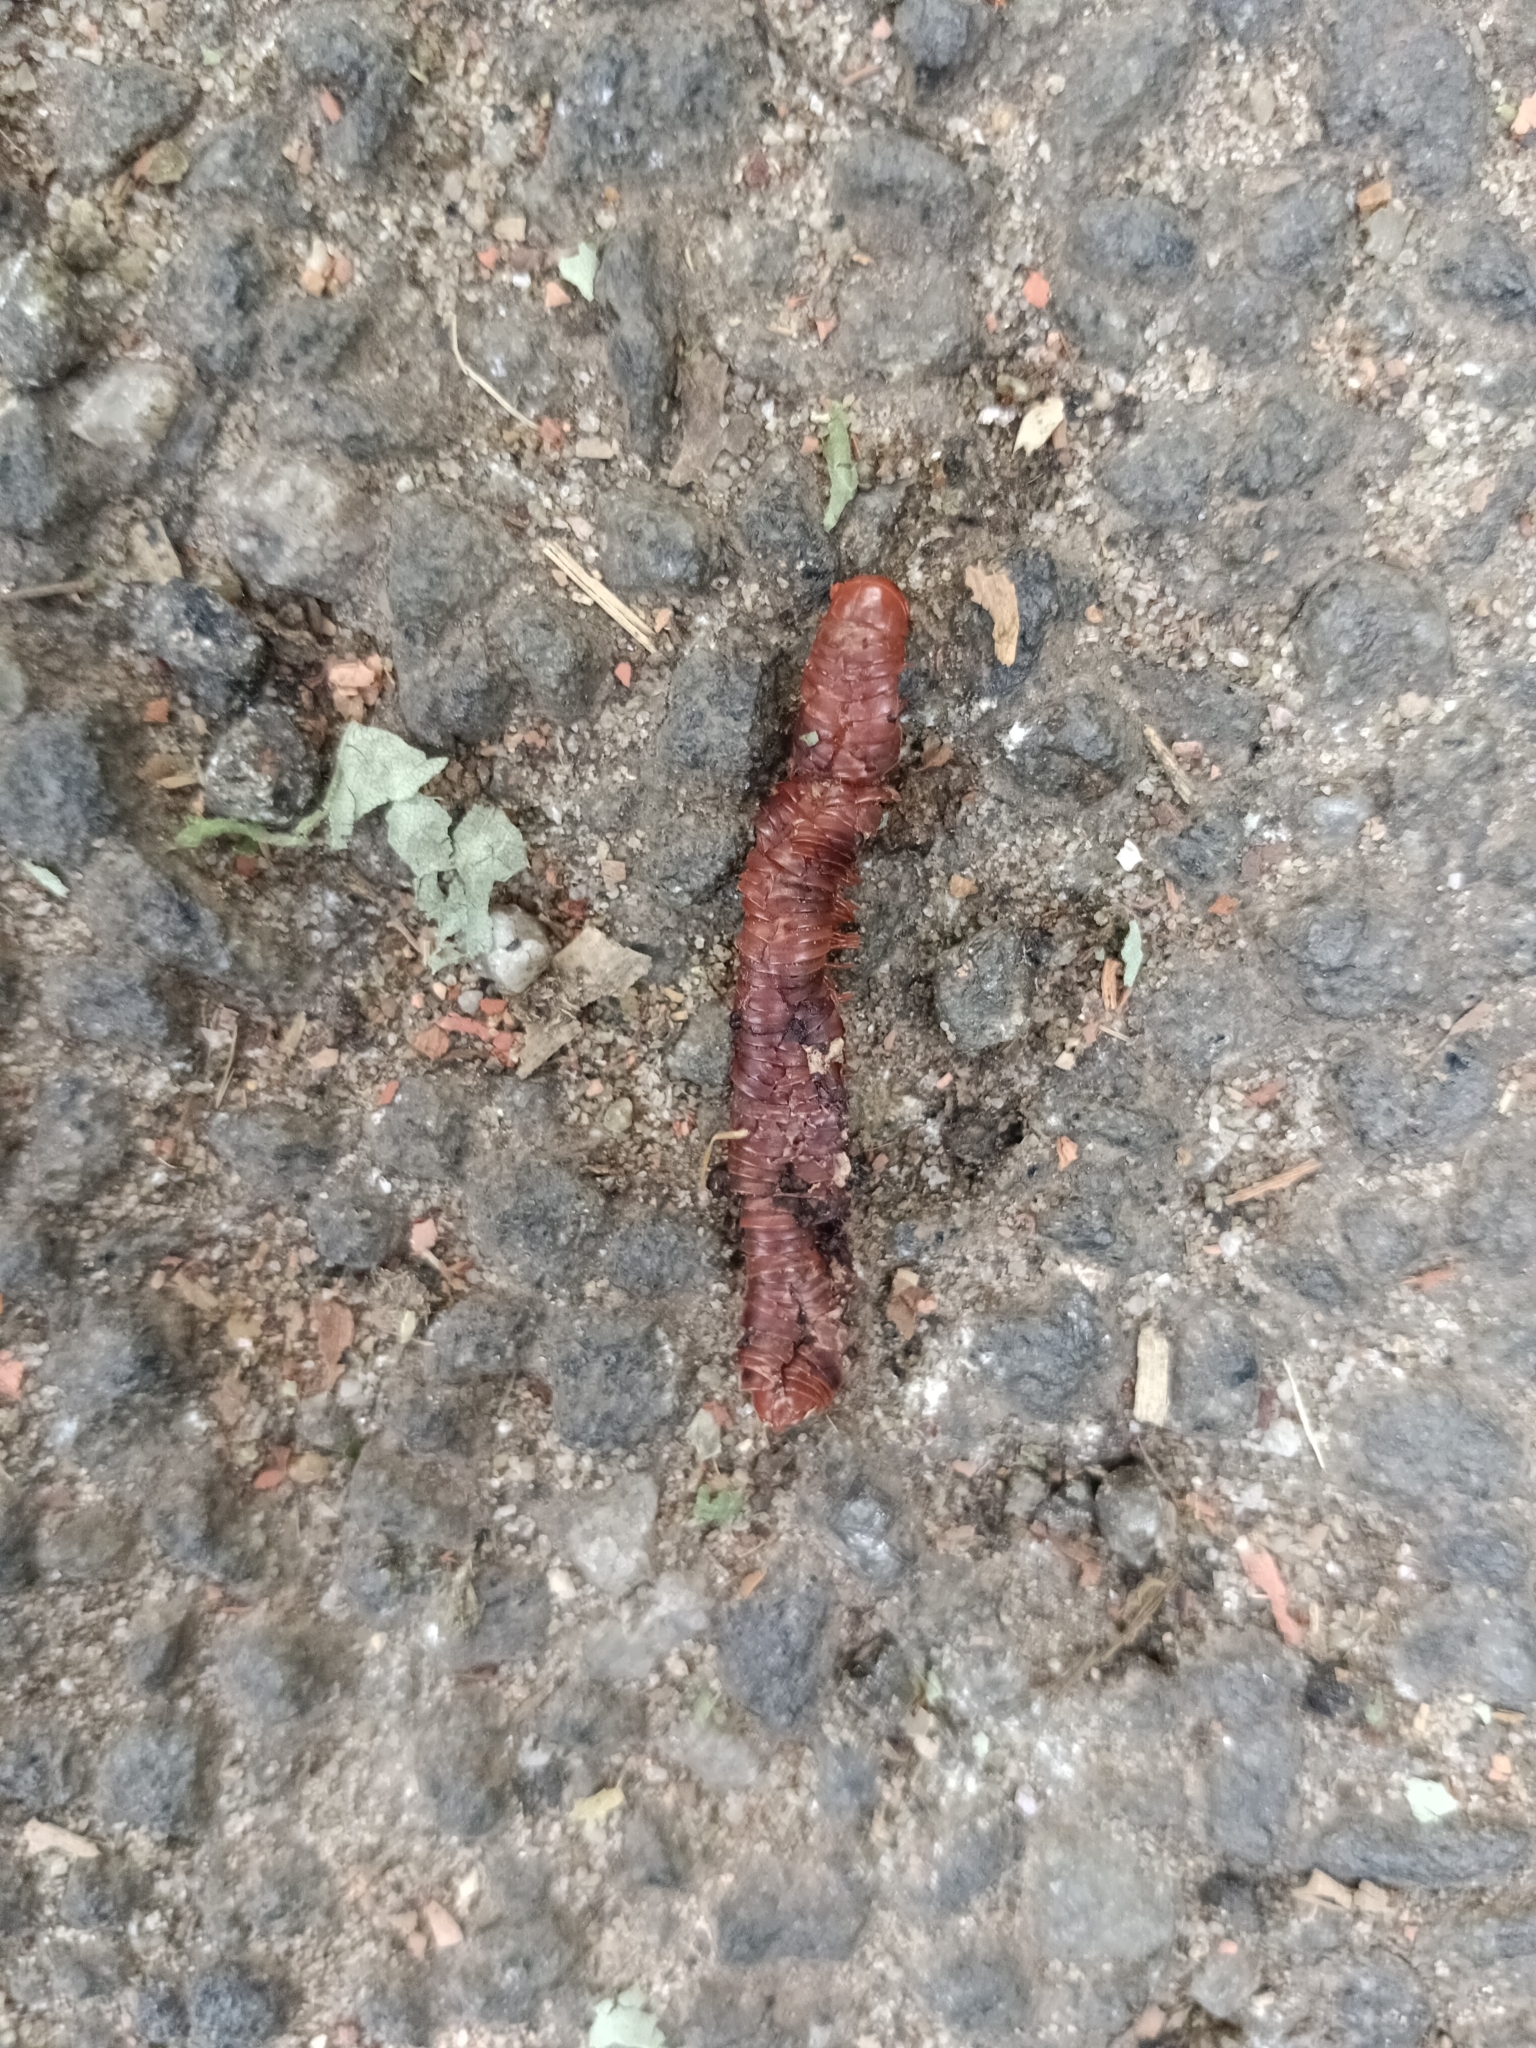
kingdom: Animalia
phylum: Arthropoda
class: Diplopoda
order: Spirobolida
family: Pachybolidae
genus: Trigoniulus
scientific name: Trigoniulus corallinus
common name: Millipede
